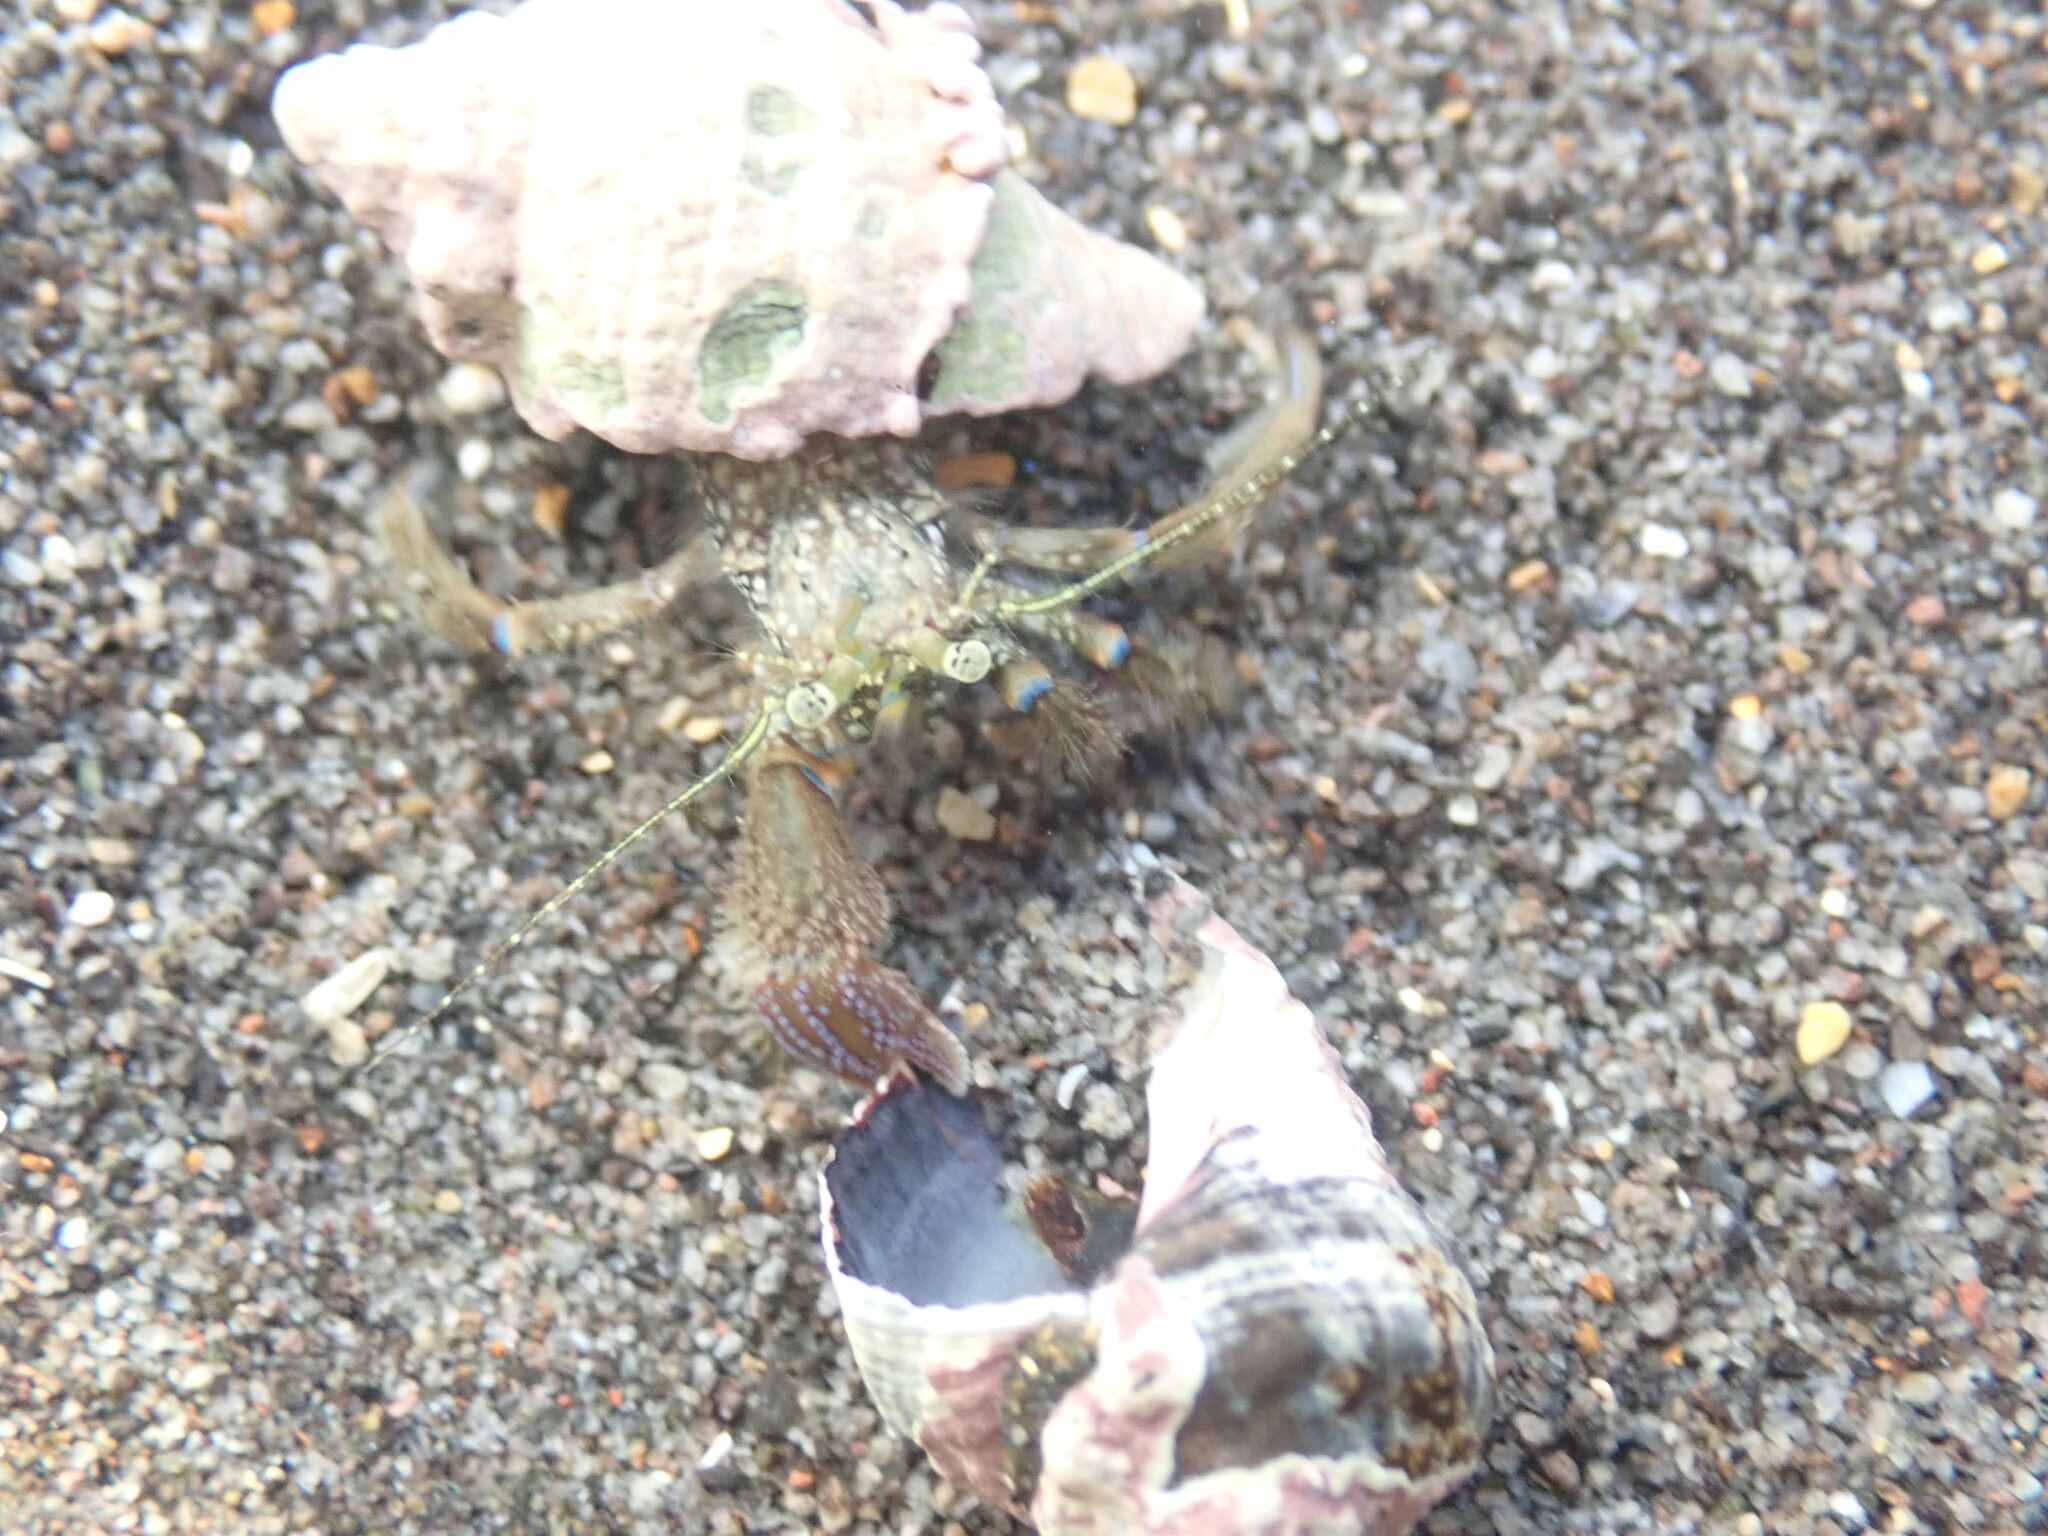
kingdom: Animalia
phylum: Arthropoda
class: Malacostraca
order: Decapoda
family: Paguridae
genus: Pagurus
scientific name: Pagurus novizealandiae
